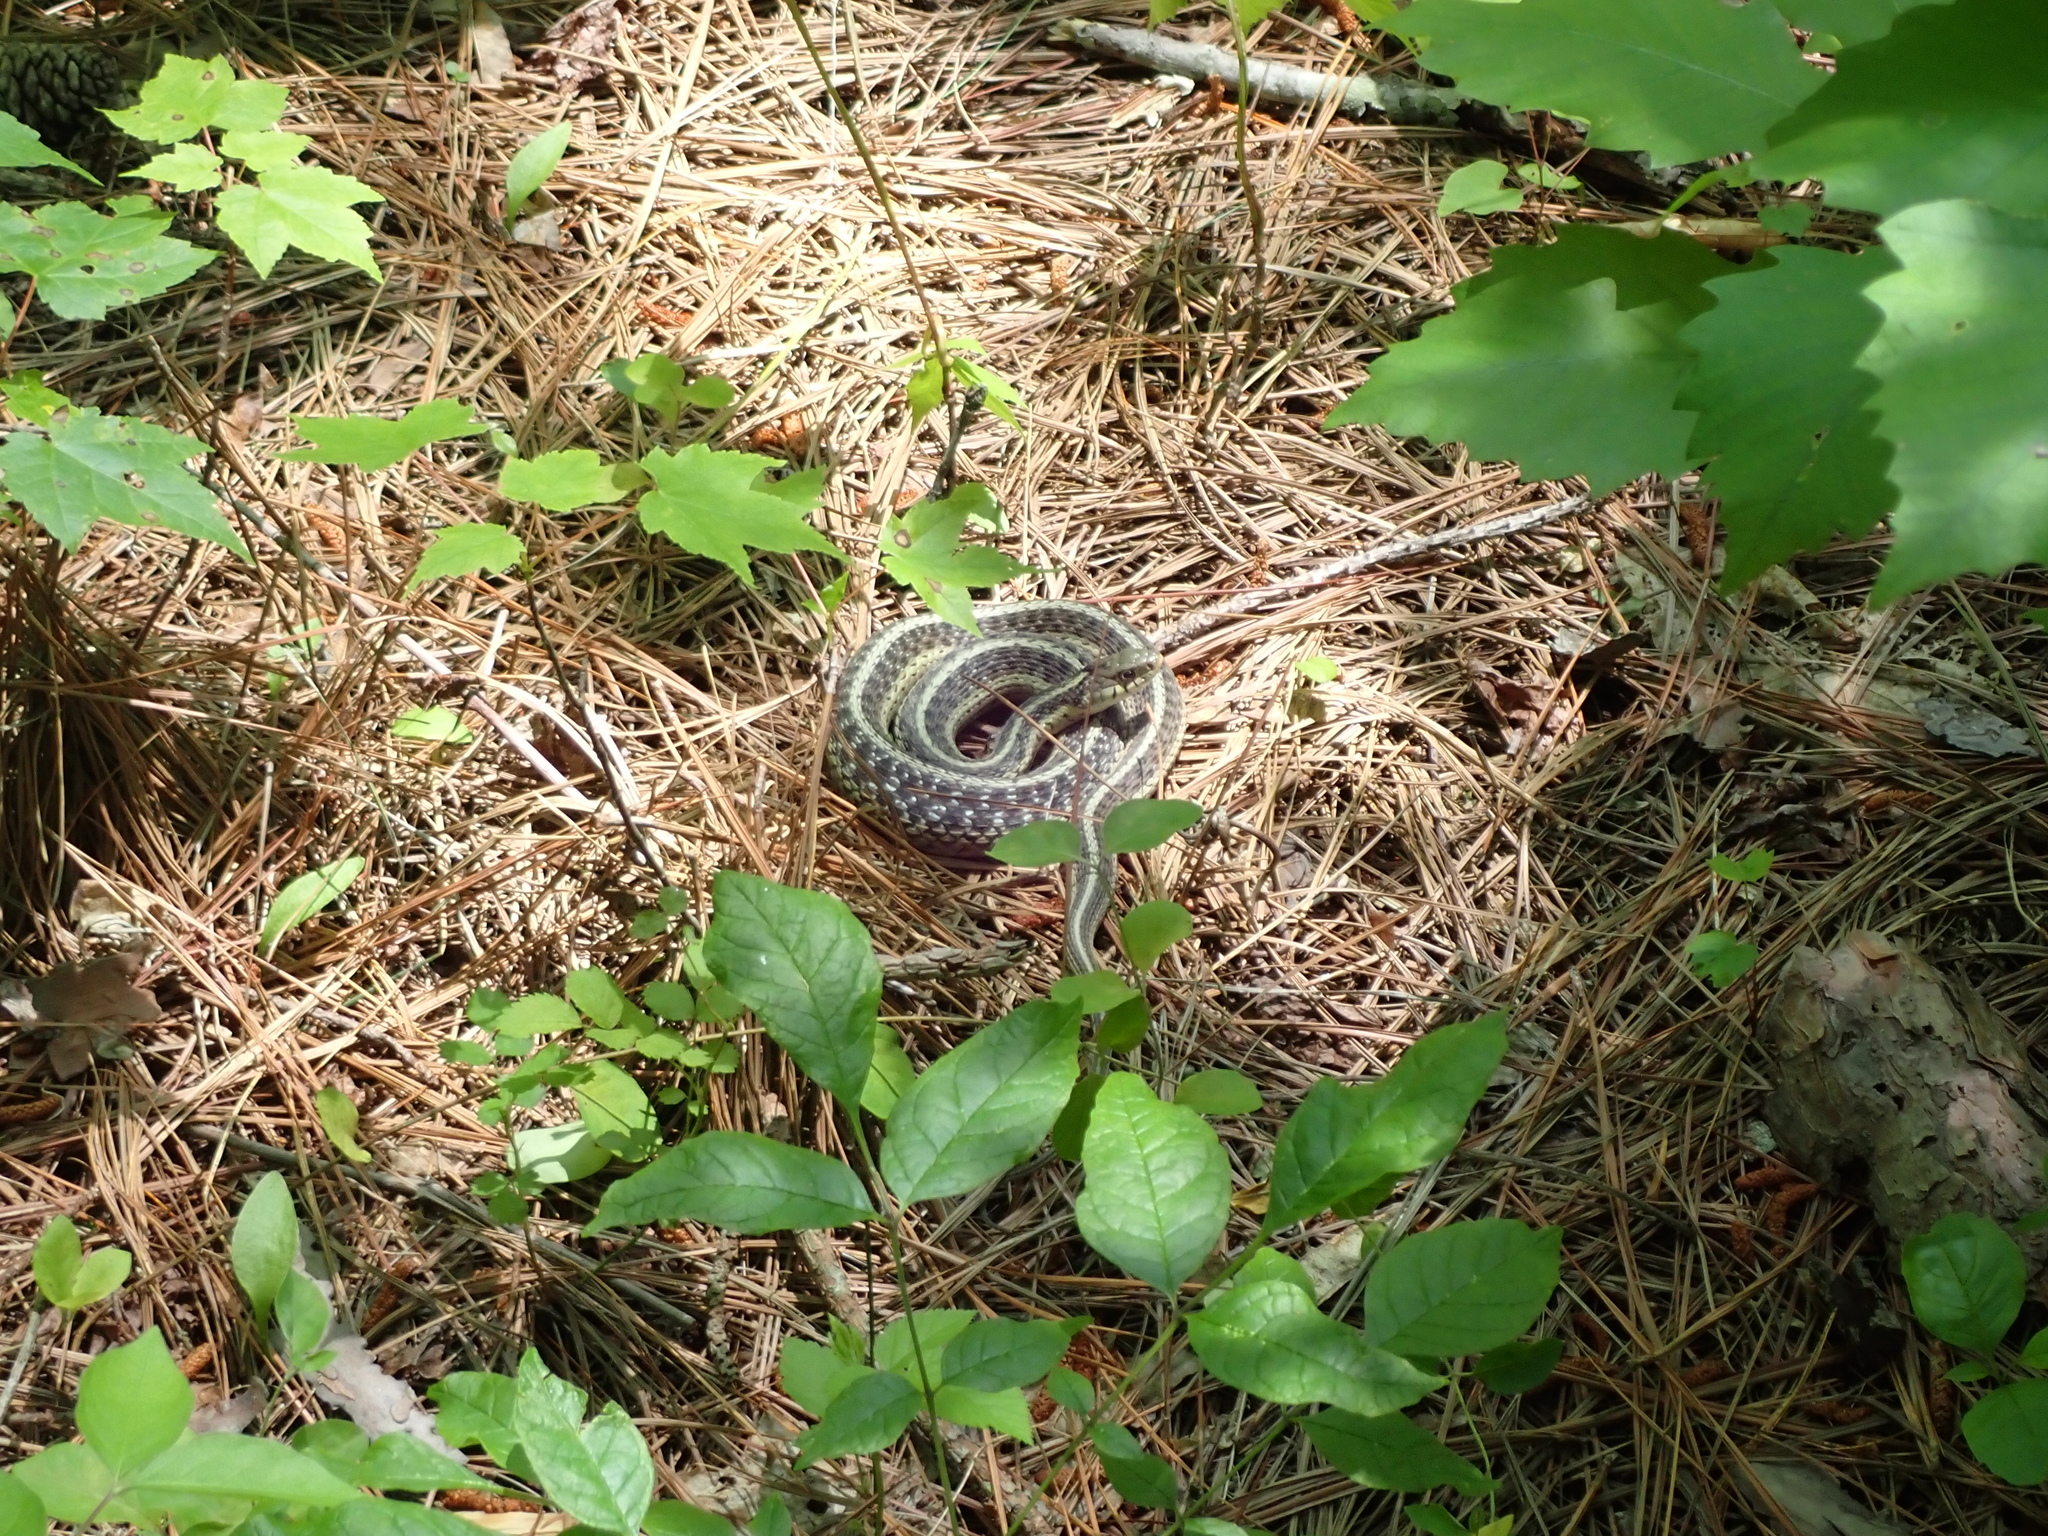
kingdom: Animalia
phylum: Chordata
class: Squamata
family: Colubridae
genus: Thamnophis
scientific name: Thamnophis sirtalis
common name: Common garter snake
